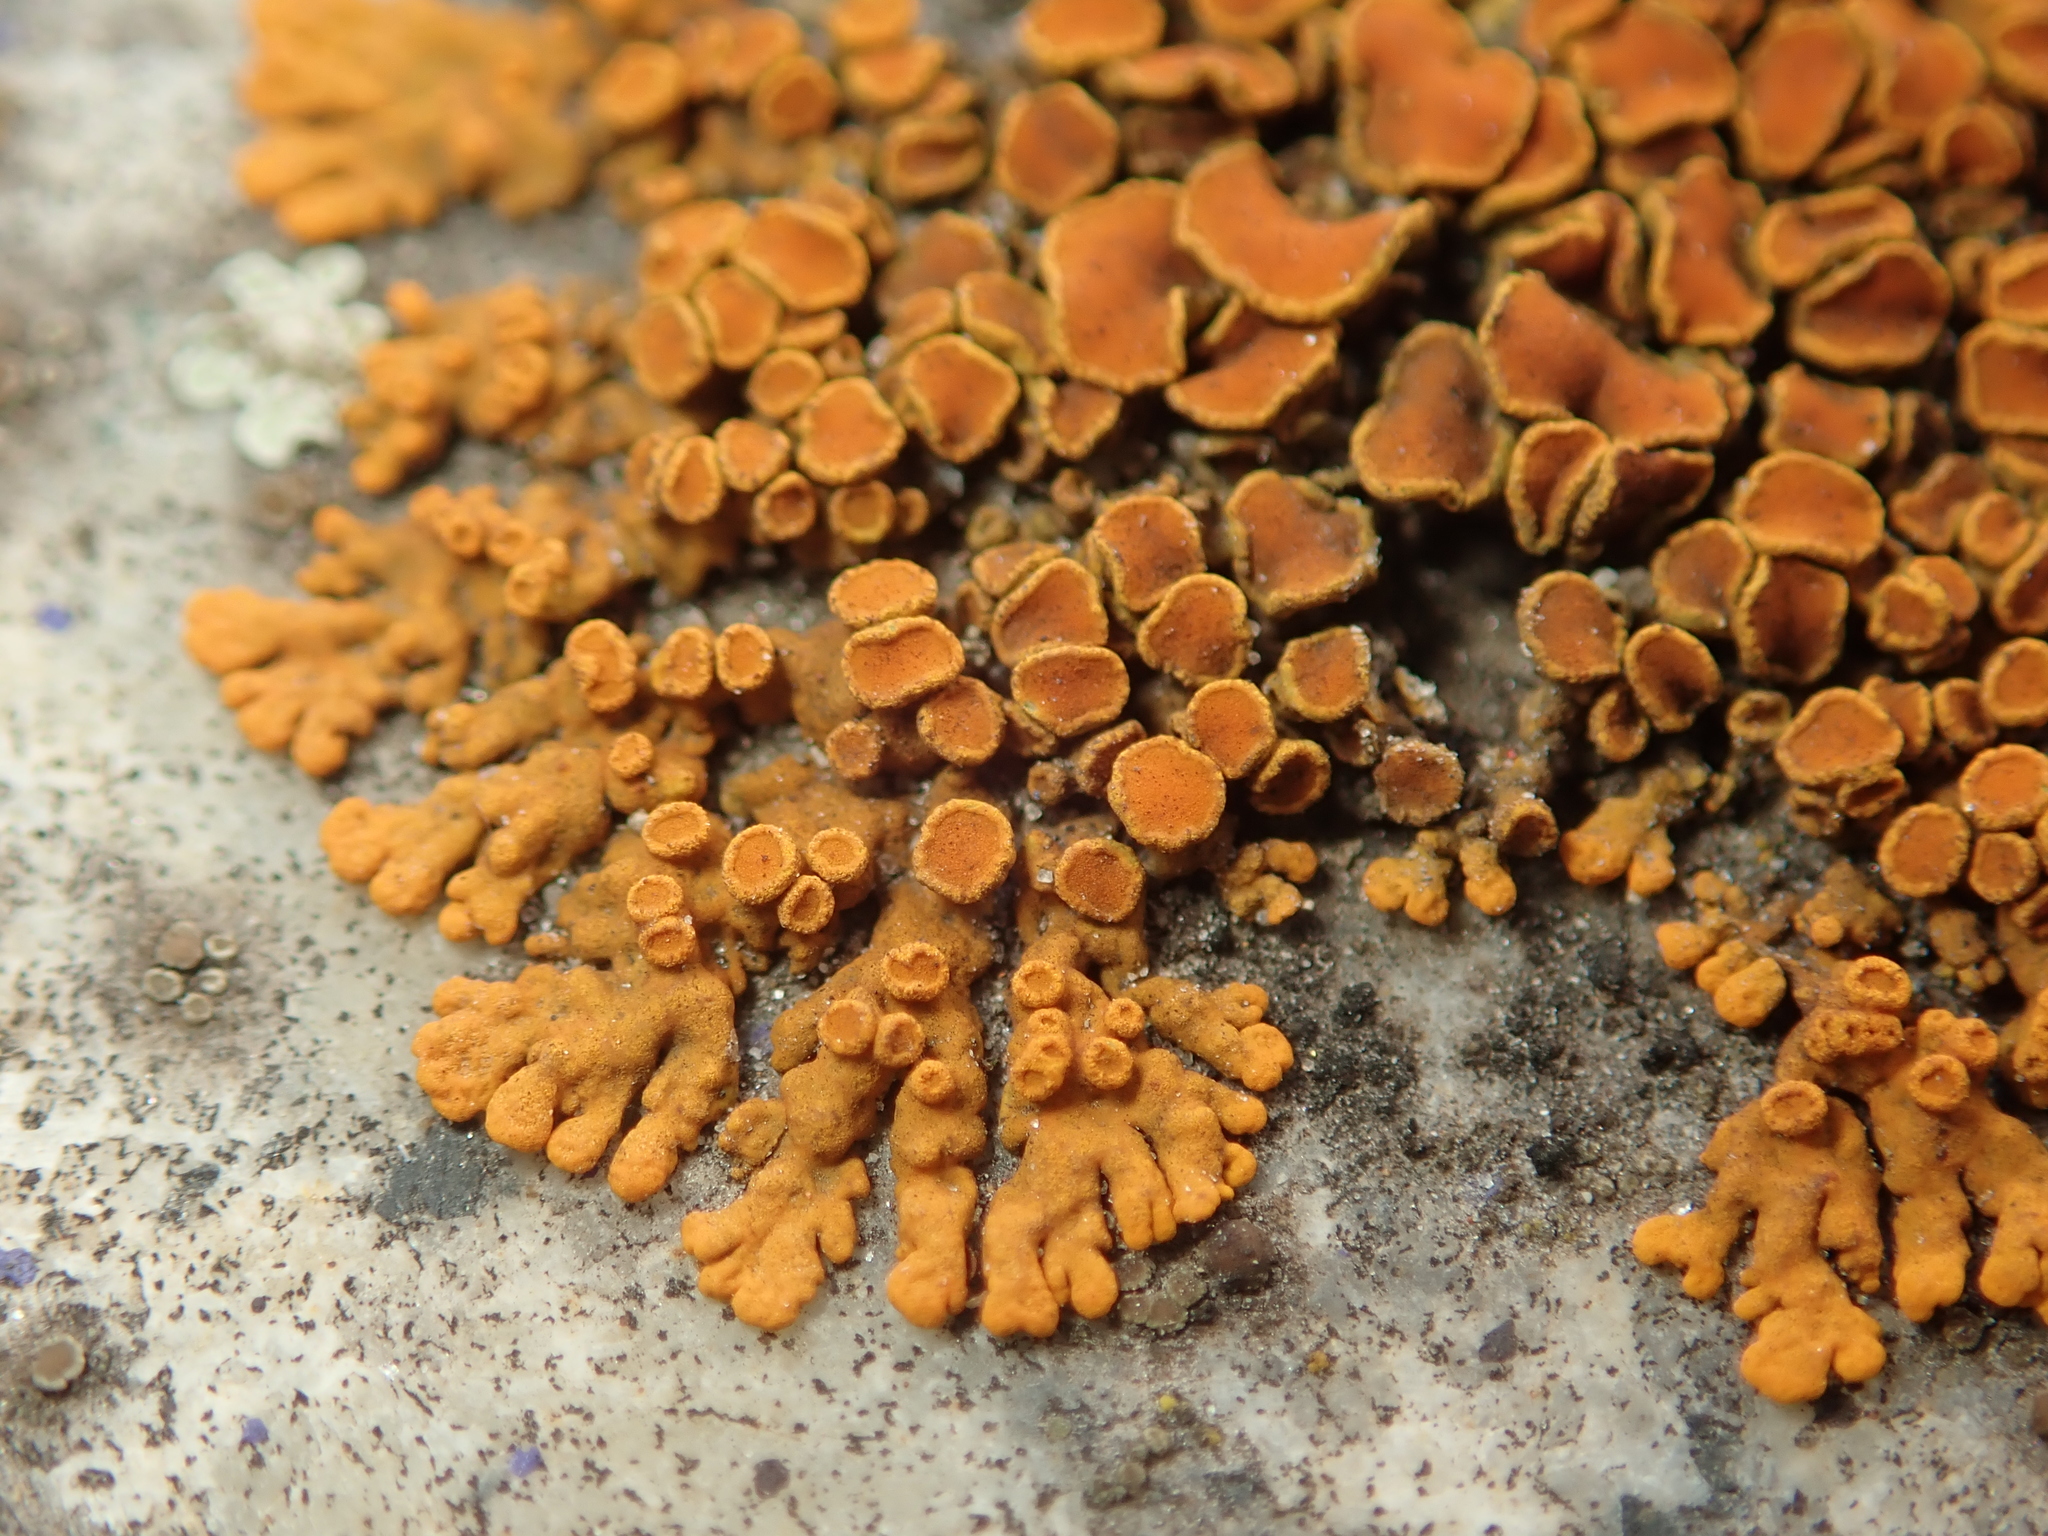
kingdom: Fungi
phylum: Ascomycota
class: Lecanoromycetes
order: Teloschistales
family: Teloschistaceae
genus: Xanthoria
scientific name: Xanthoria elegans
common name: Elegant sunburst lichen
